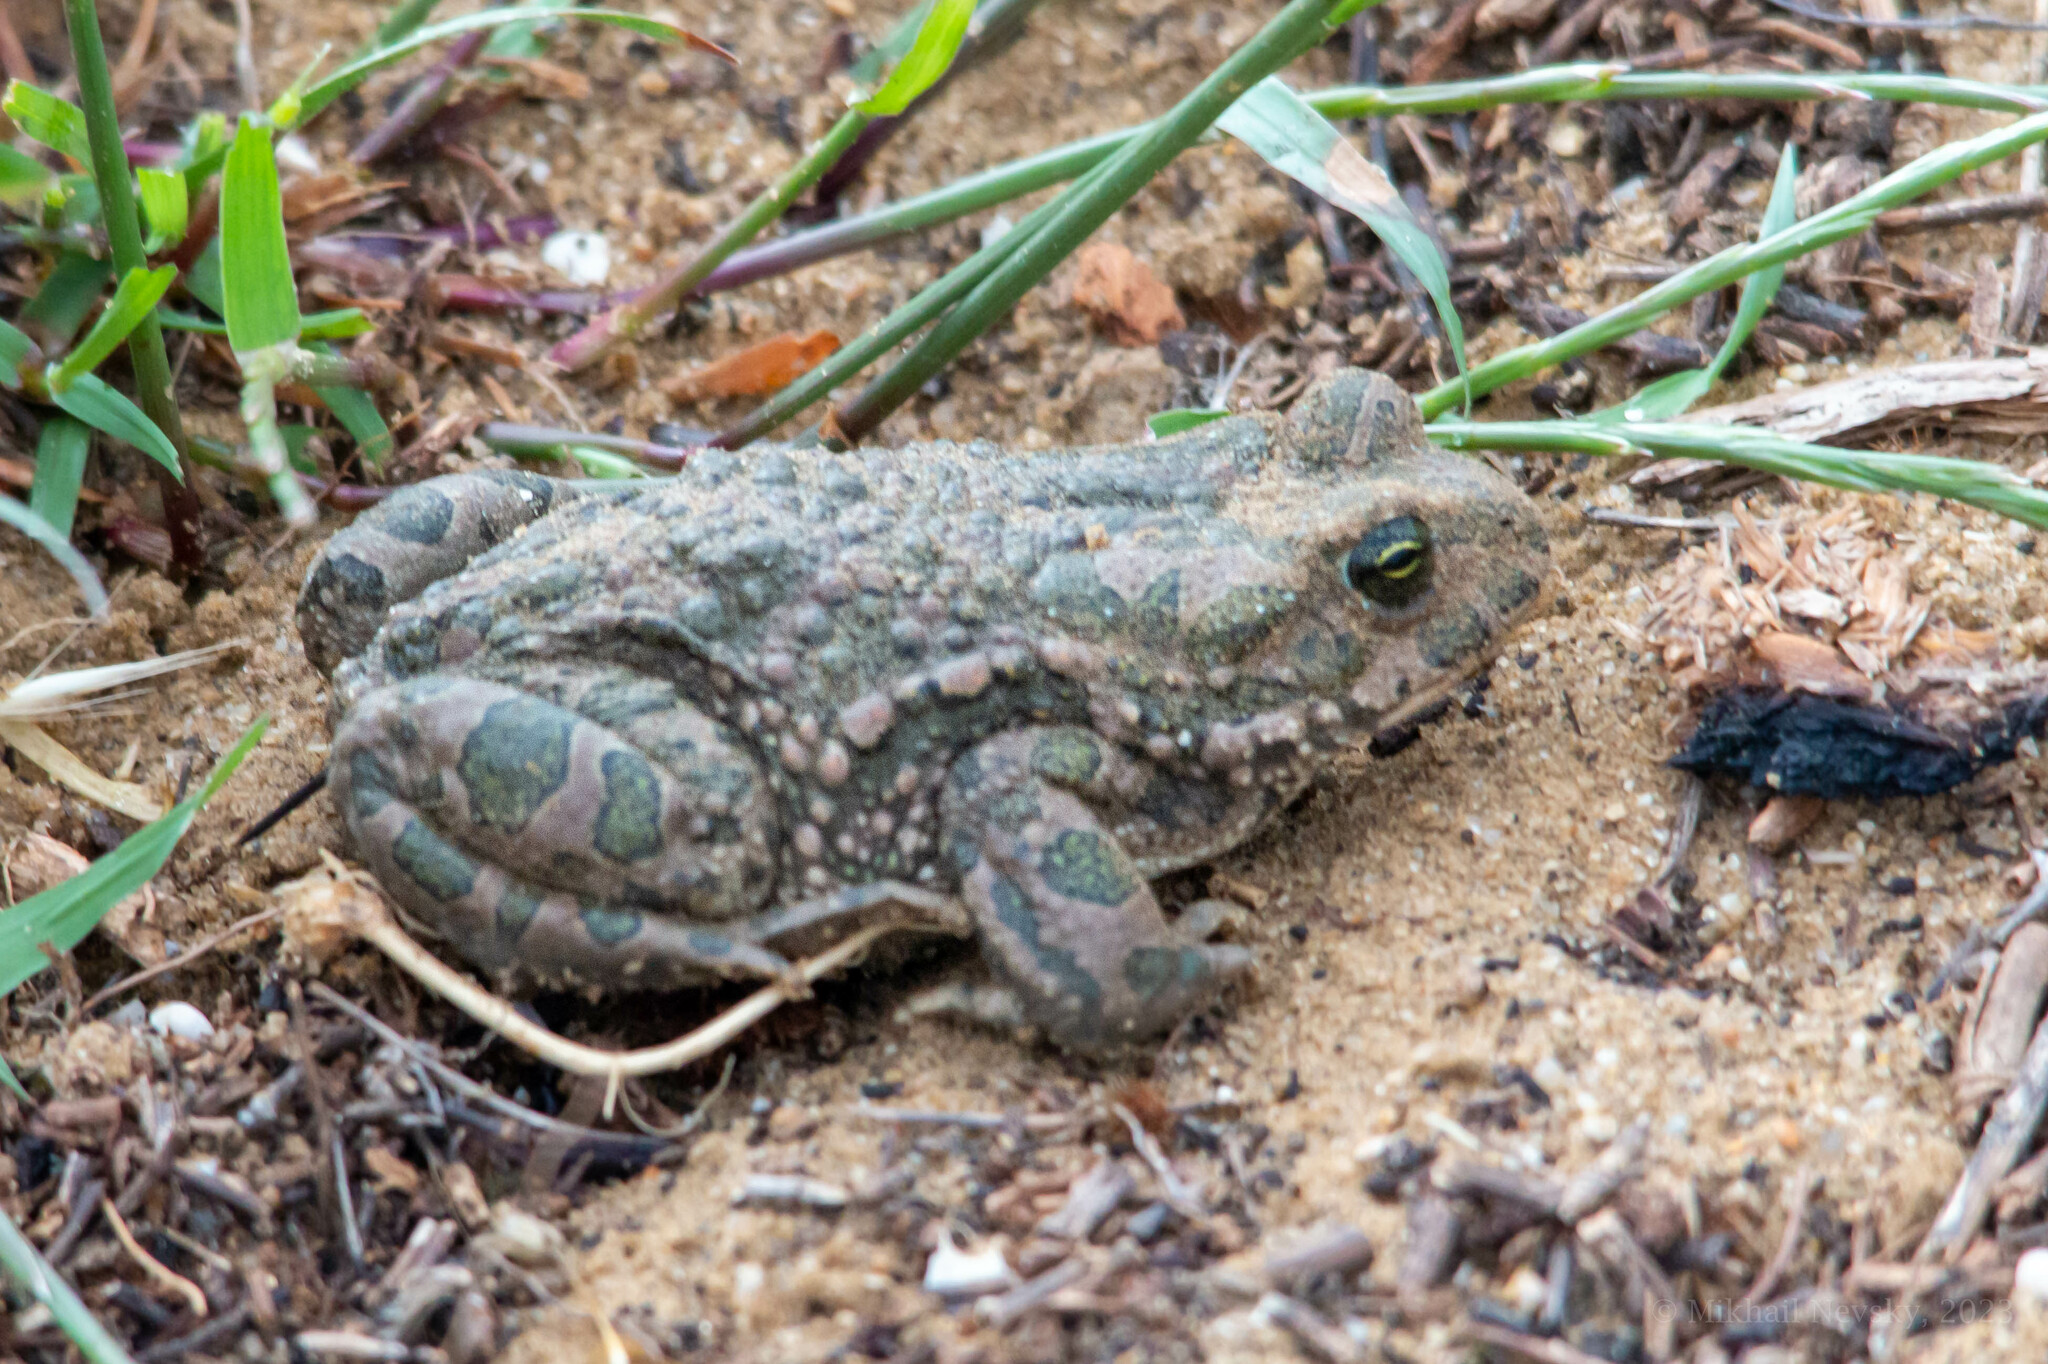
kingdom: Animalia
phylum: Chordata
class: Amphibia
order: Anura
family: Bufonidae
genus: Bufotes
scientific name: Bufotes viridis
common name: European green toad
